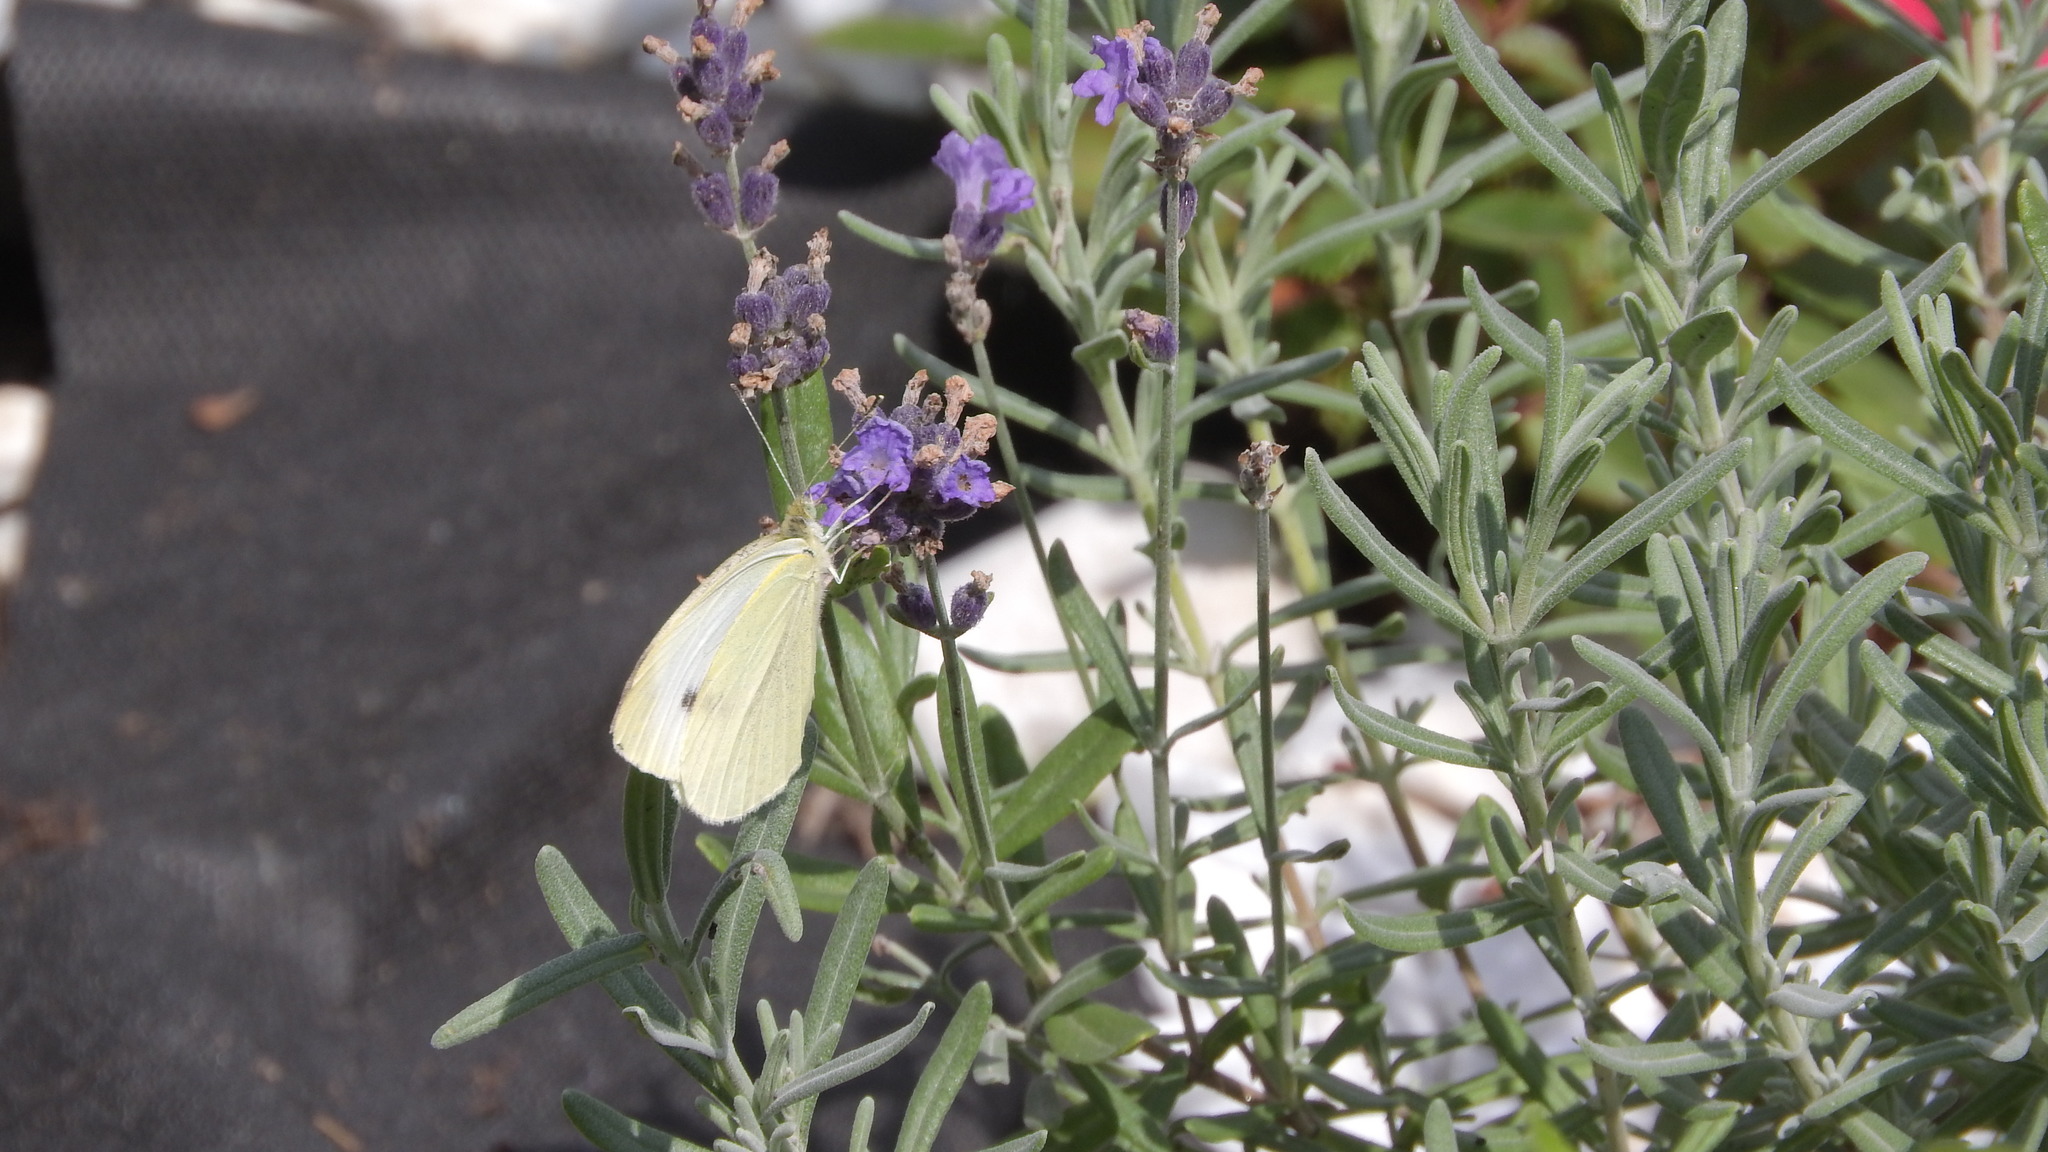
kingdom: Animalia
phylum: Arthropoda
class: Insecta
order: Lepidoptera
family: Pieridae
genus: Pieris
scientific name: Pieris rapae
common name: Small white
